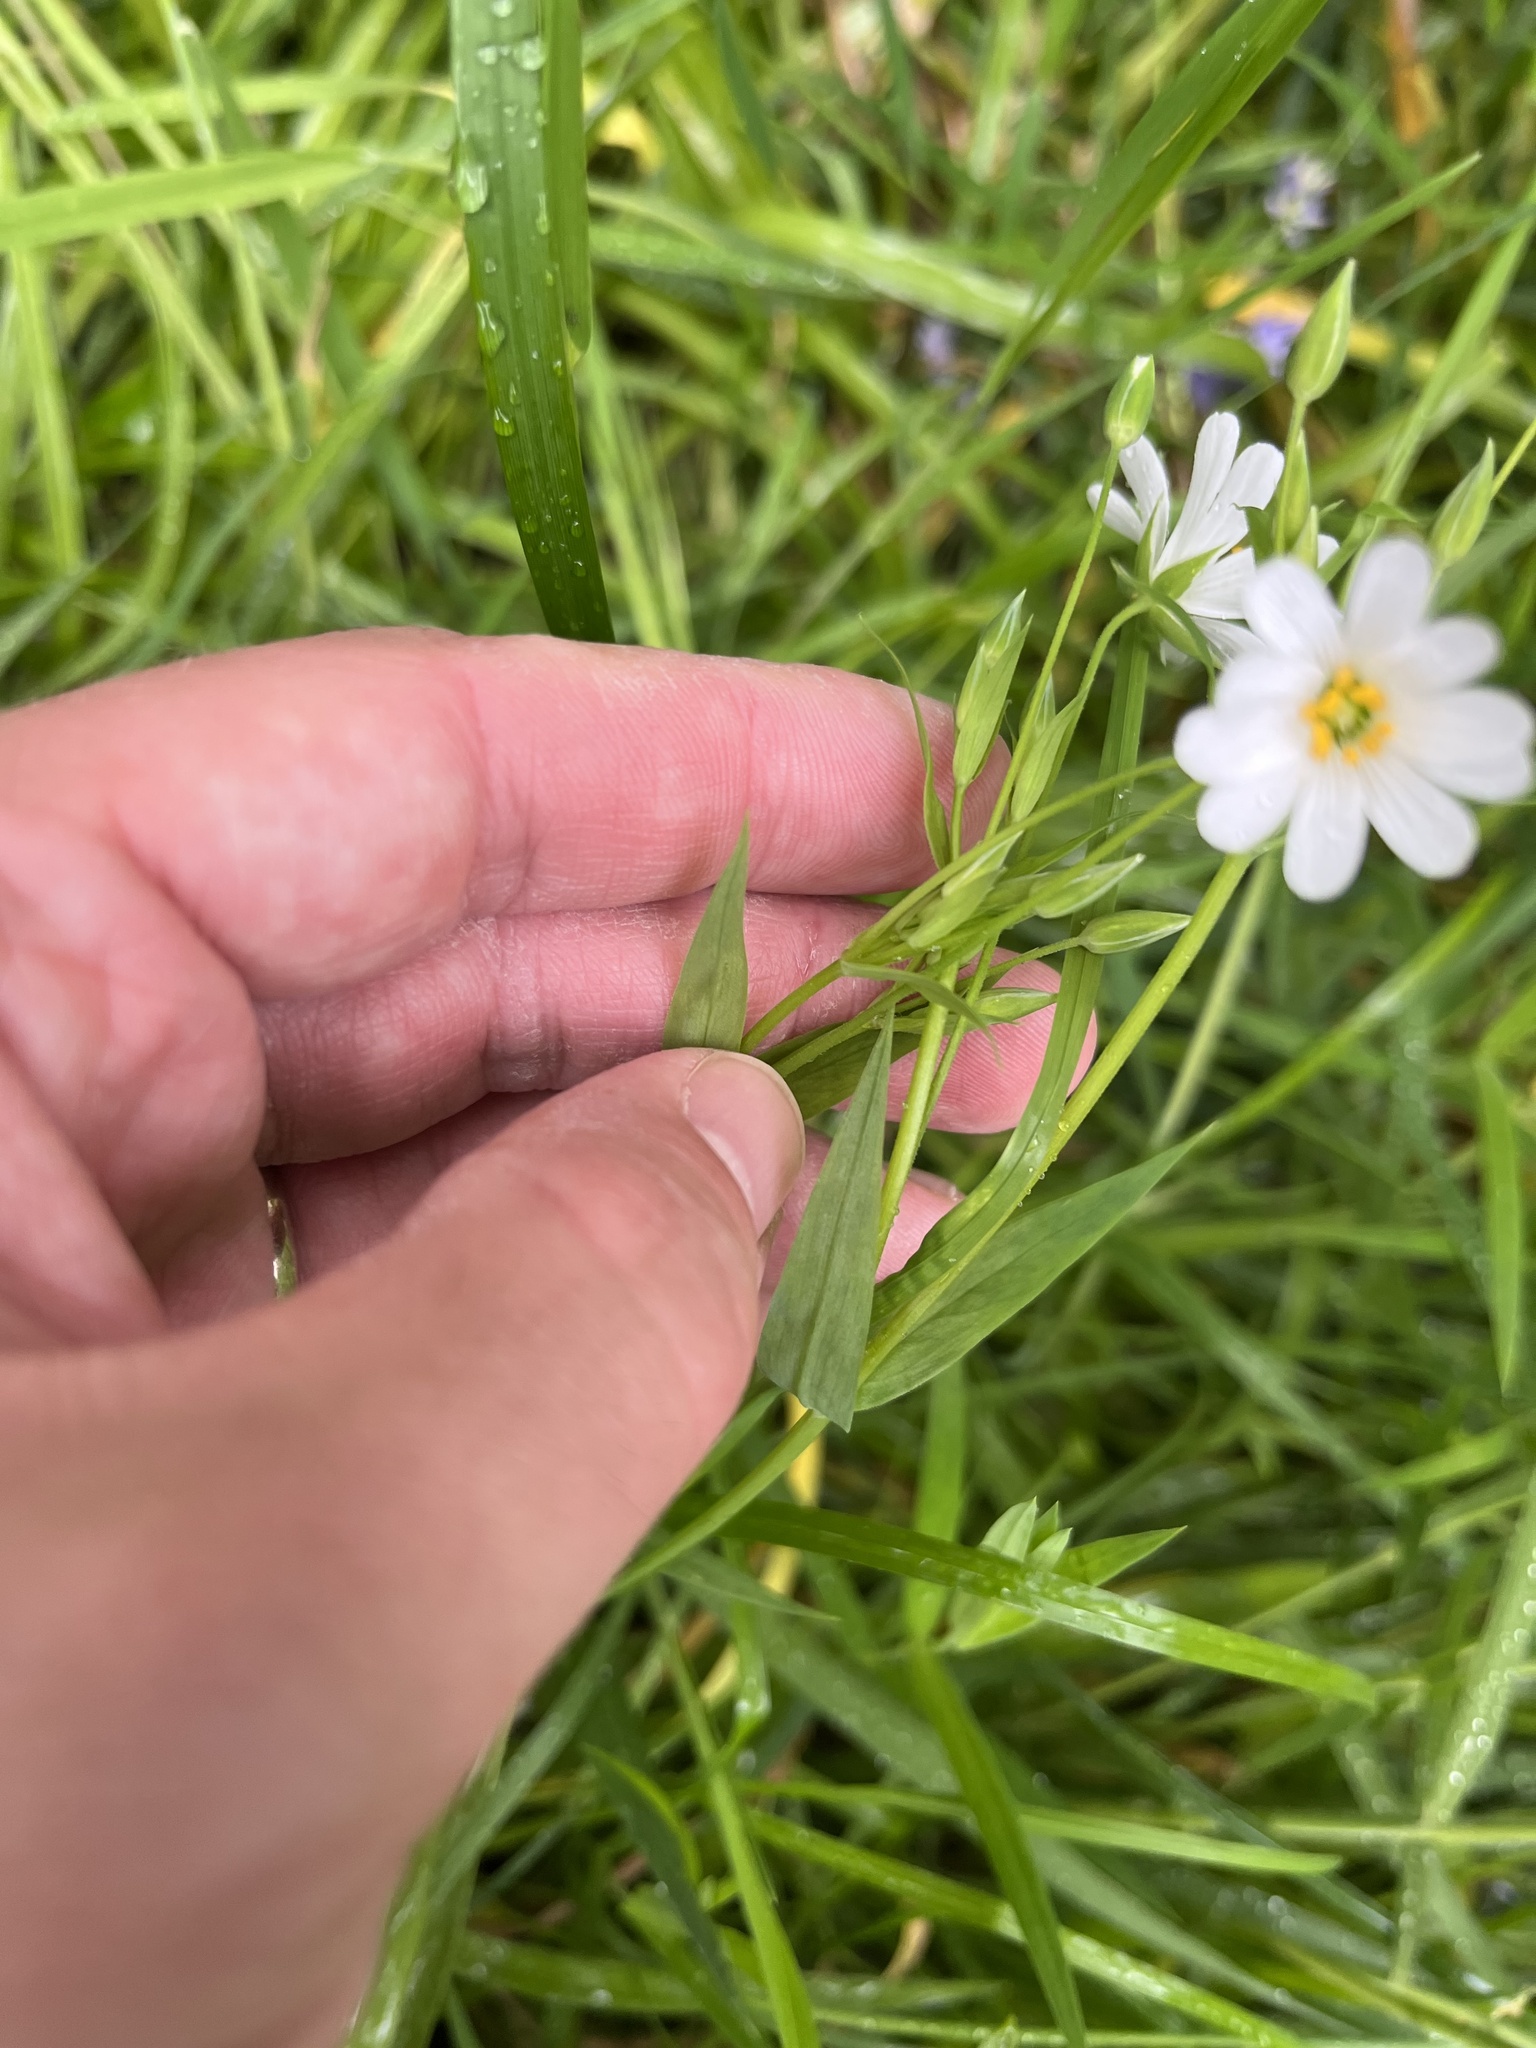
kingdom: Plantae
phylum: Tracheophyta
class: Magnoliopsida
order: Caryophyllales
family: Caryophyllaceae
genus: Rabelera
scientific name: Rabelera holostea
